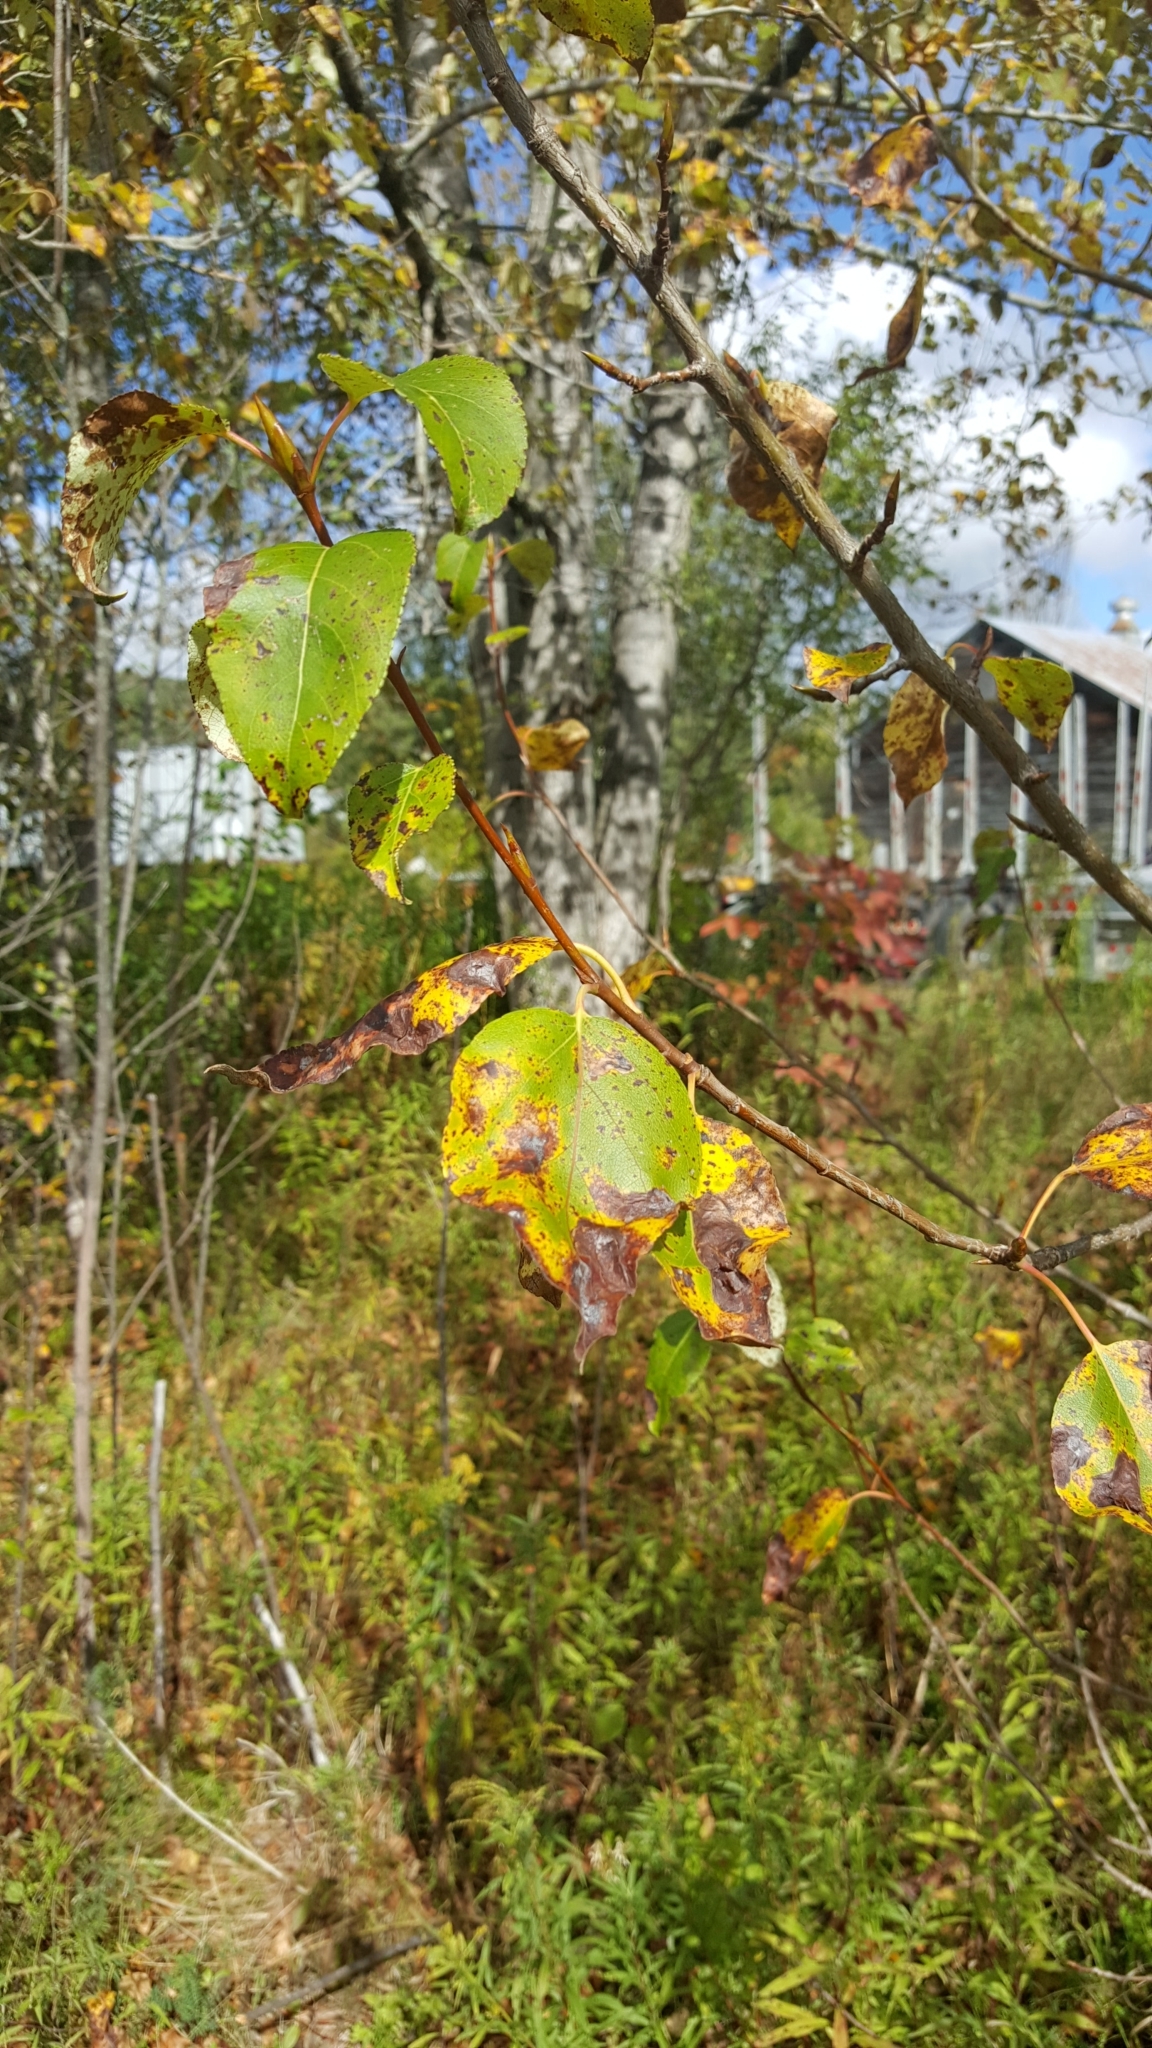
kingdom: Plantae
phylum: Tracheophyta
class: Magnoliopsida
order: Malpighiales
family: Salicaceae
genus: Populus
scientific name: Populus balsamifera
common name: Balsam poplar
